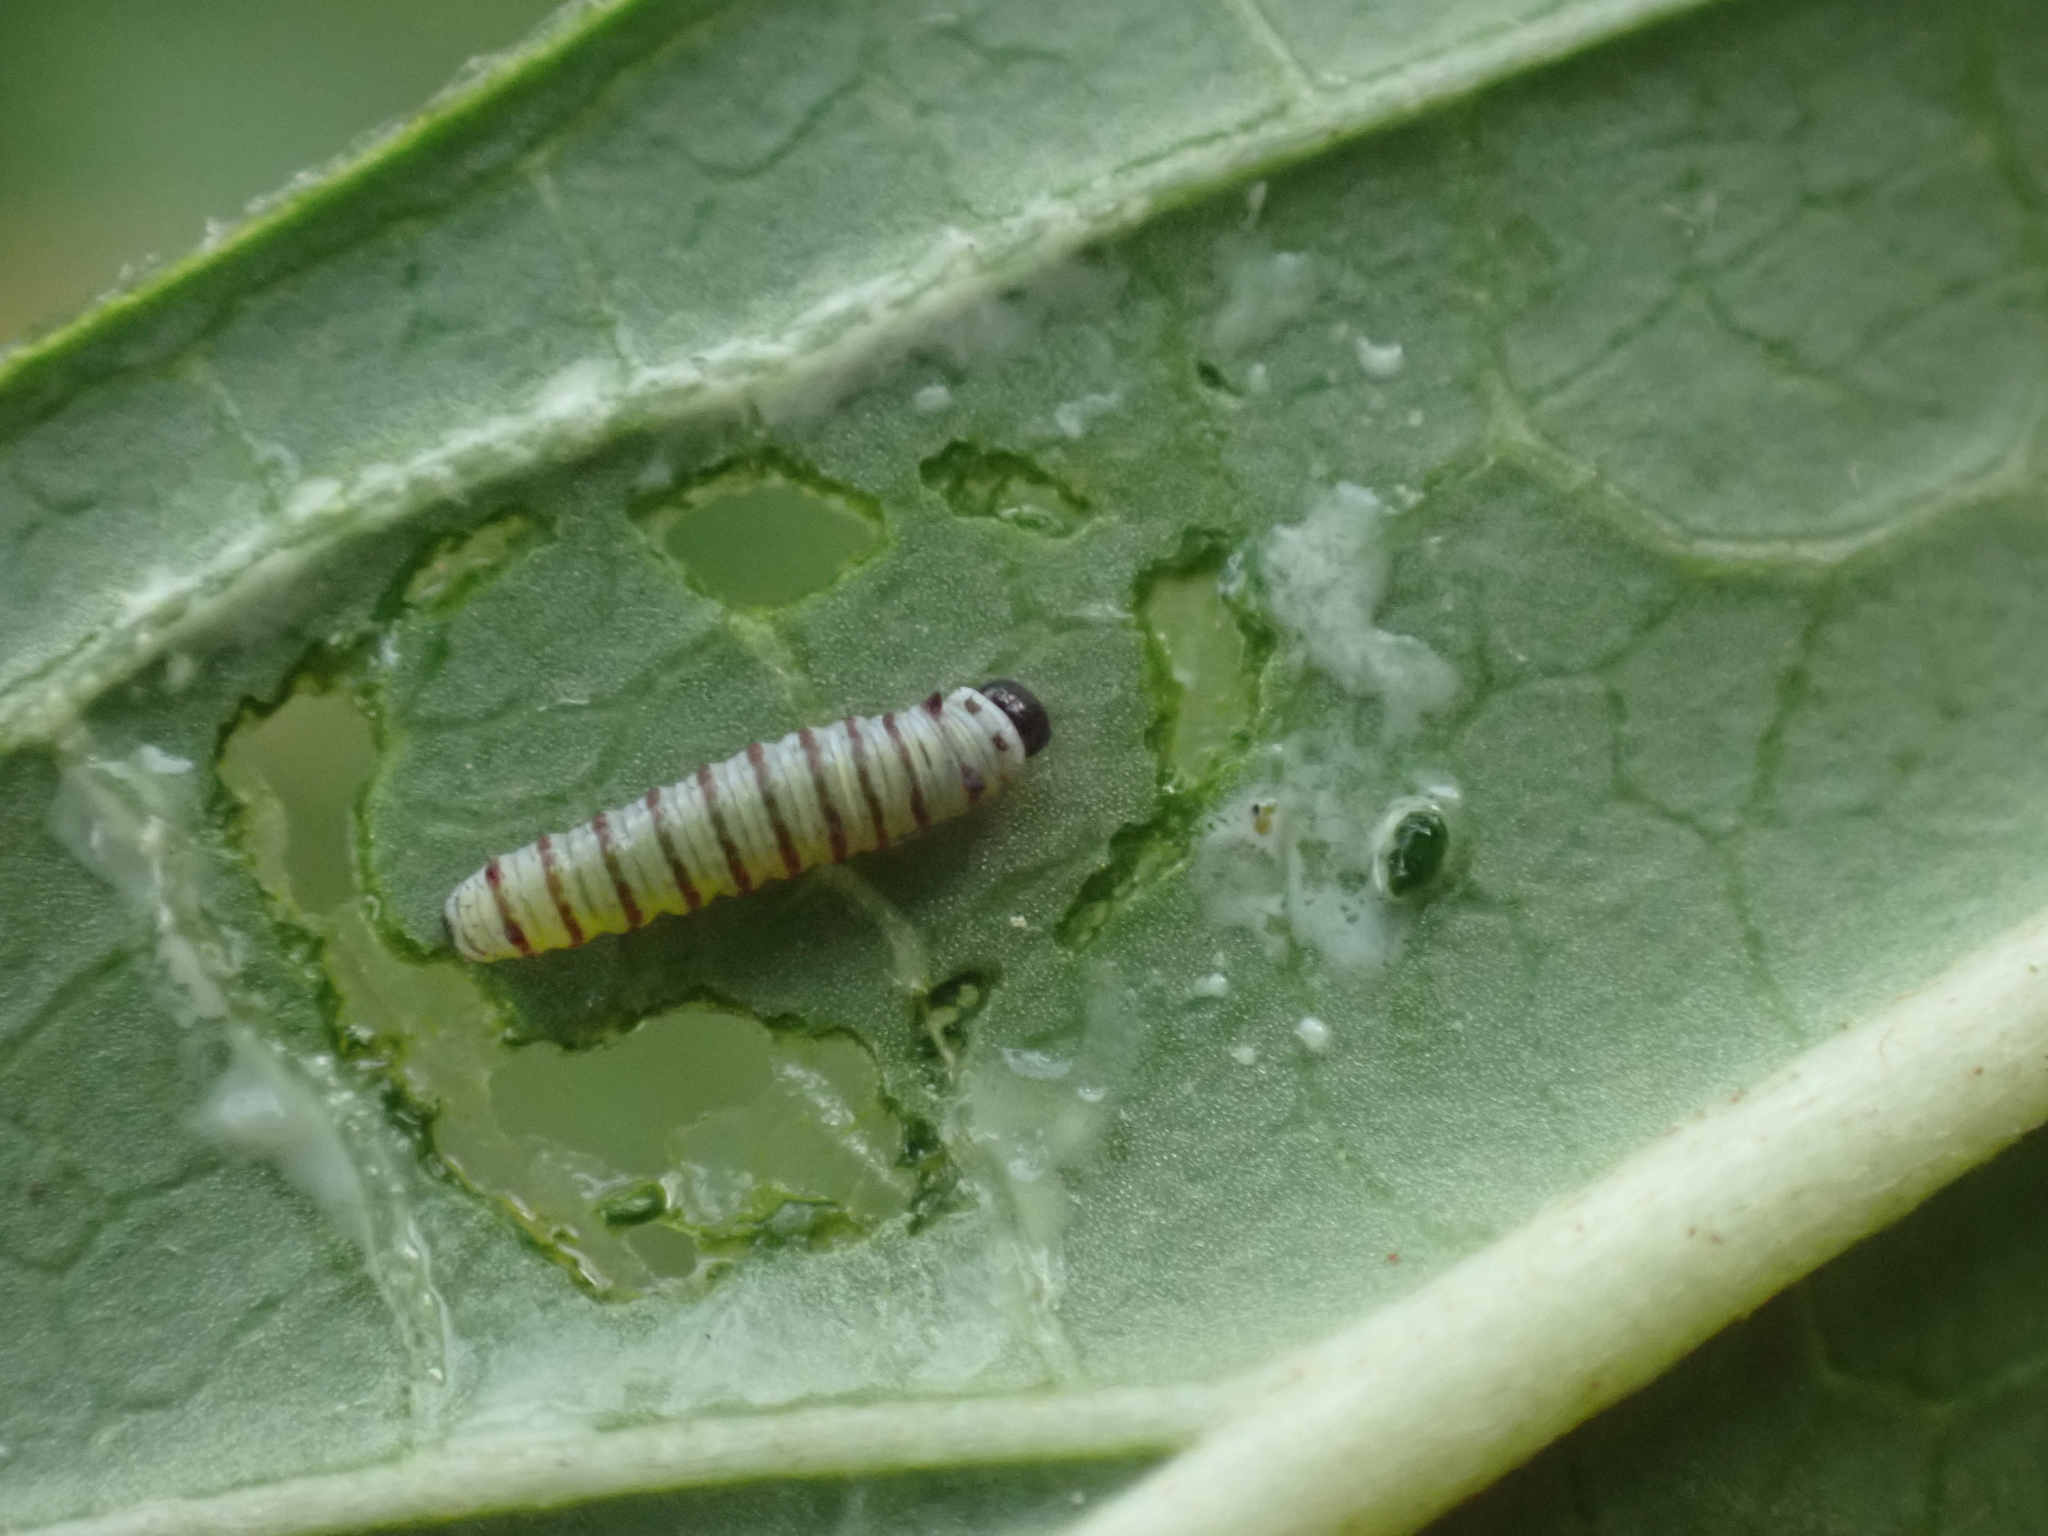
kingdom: Animalia
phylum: Arthropoda
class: Insecta
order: Lepidoptera
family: Nymphalidae
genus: Danaus
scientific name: Danaus plexippus
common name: Monarch
